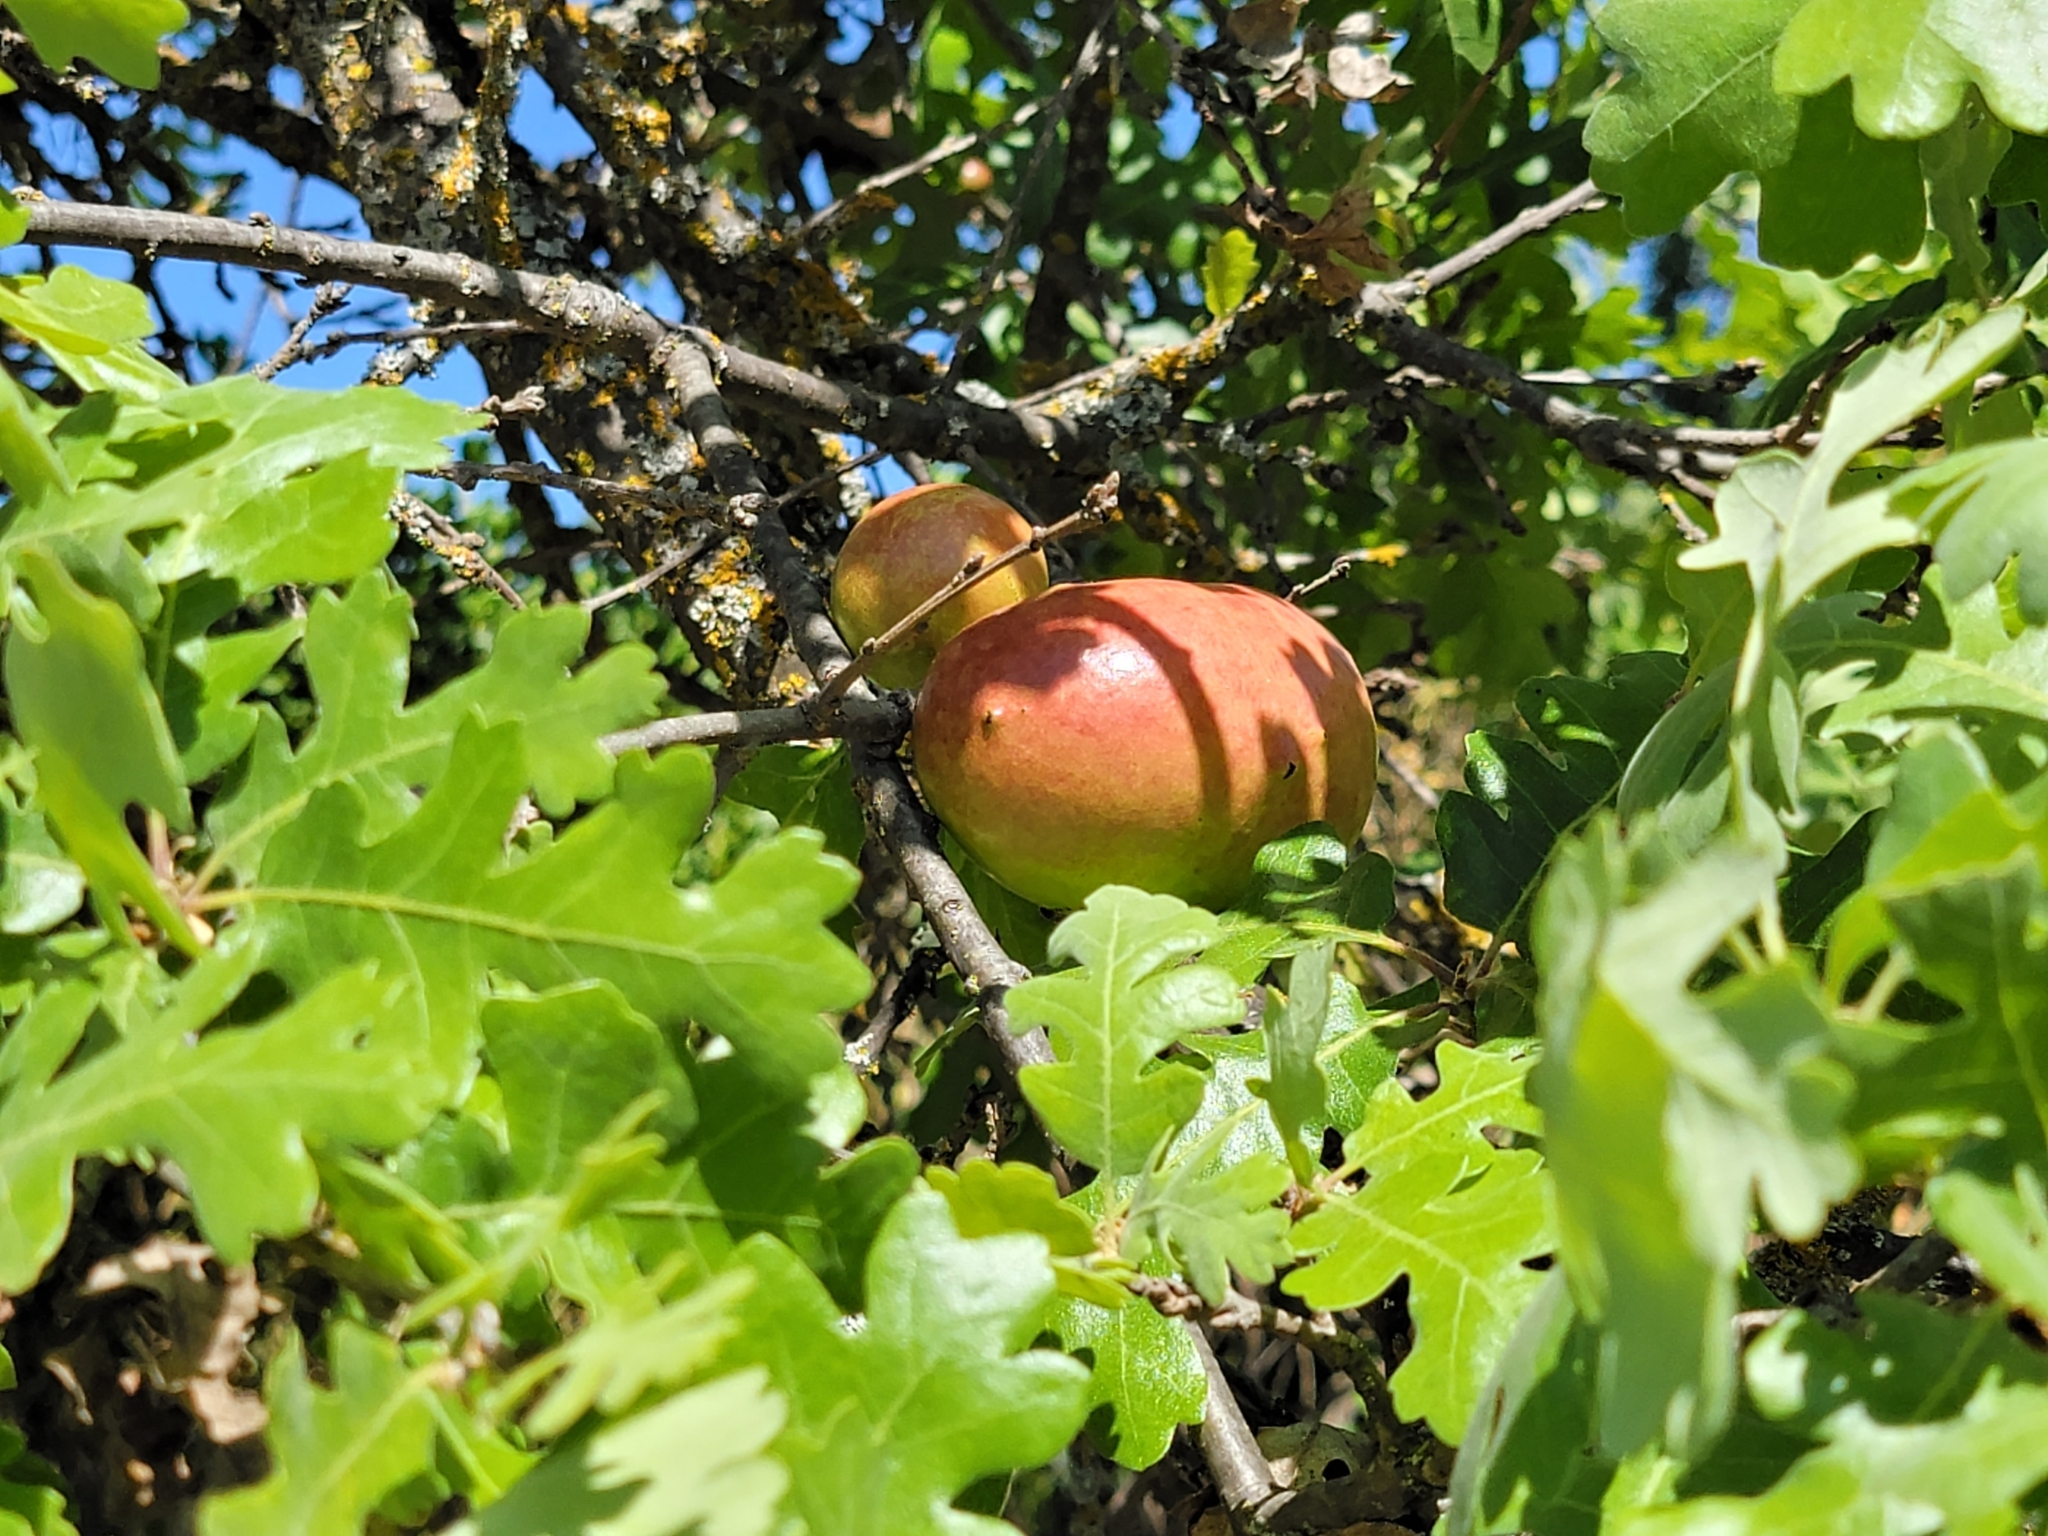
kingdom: Animalia
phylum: Arthropoda
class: Insecta
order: Hymenoptera
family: Cynipidae
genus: Andricus
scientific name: Andricus quercuscalifornicus
